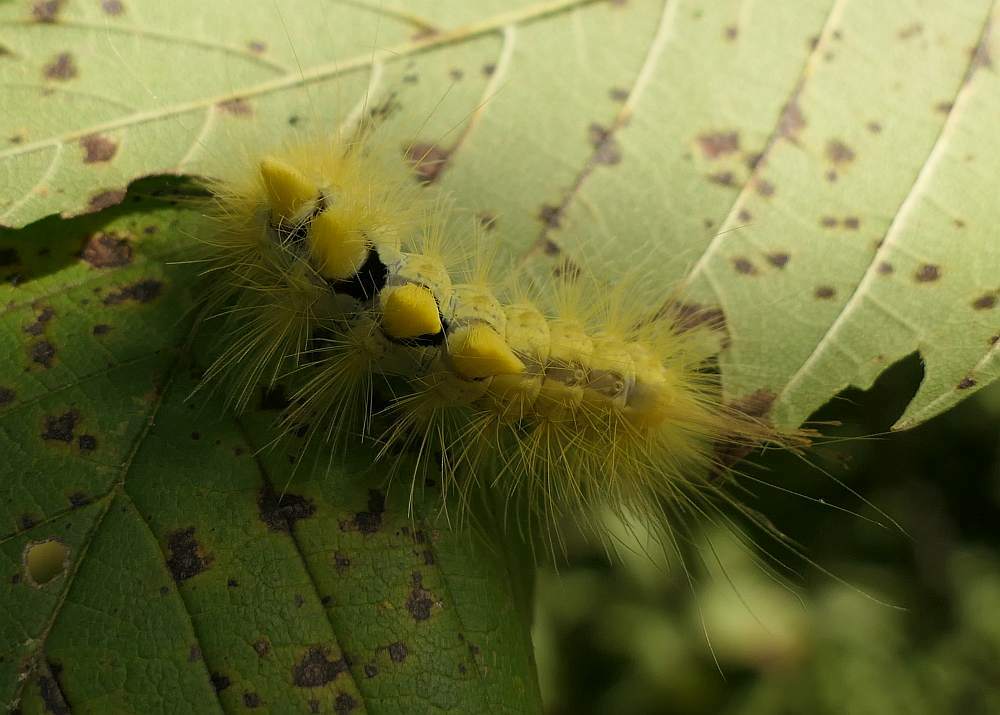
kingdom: Animalia
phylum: Arthropoda
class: Insecta
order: Lepidoptera
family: Erebidae
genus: Orgyia
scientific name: Orgyia definita
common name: Definite tussock moth
